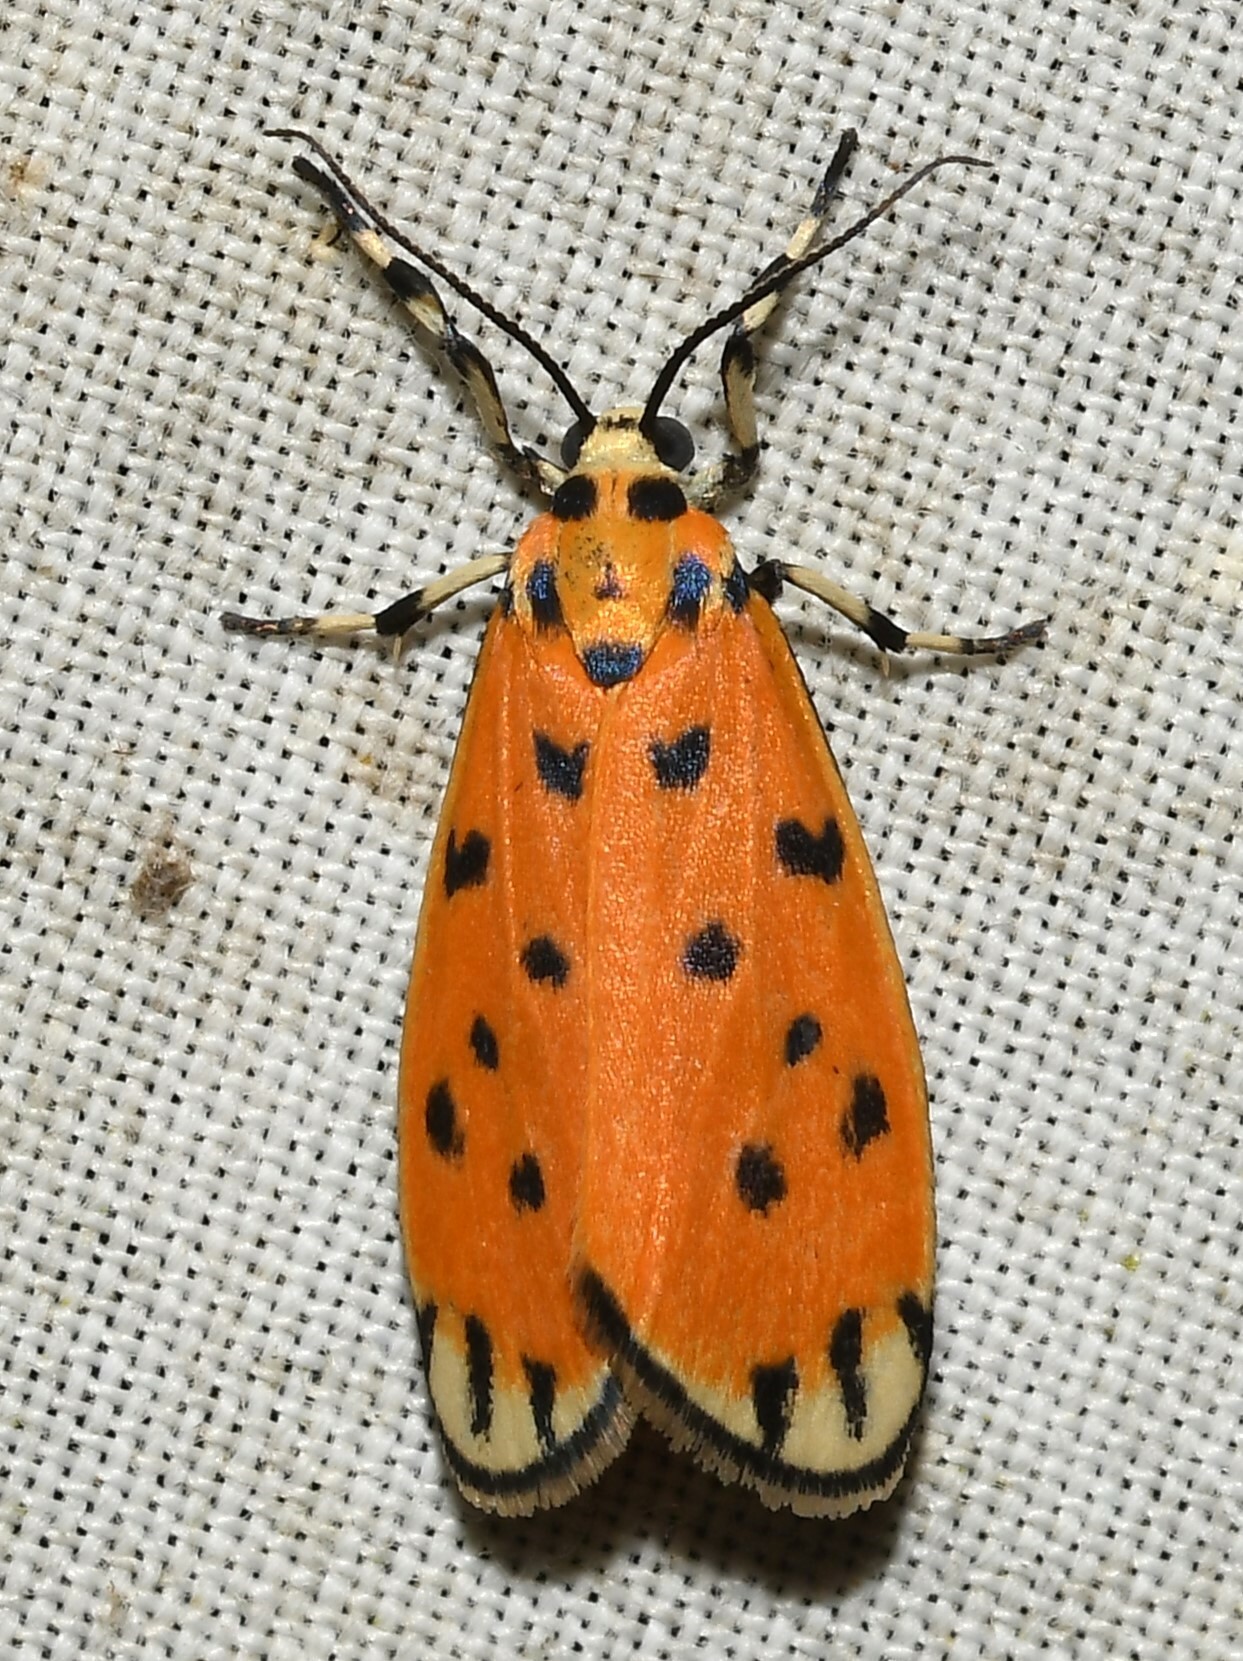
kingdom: Animalia
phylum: Arthropoda
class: Insecta
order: Lepidoptera
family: Erebidae
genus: Clemensia
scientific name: Clemensia donuca
